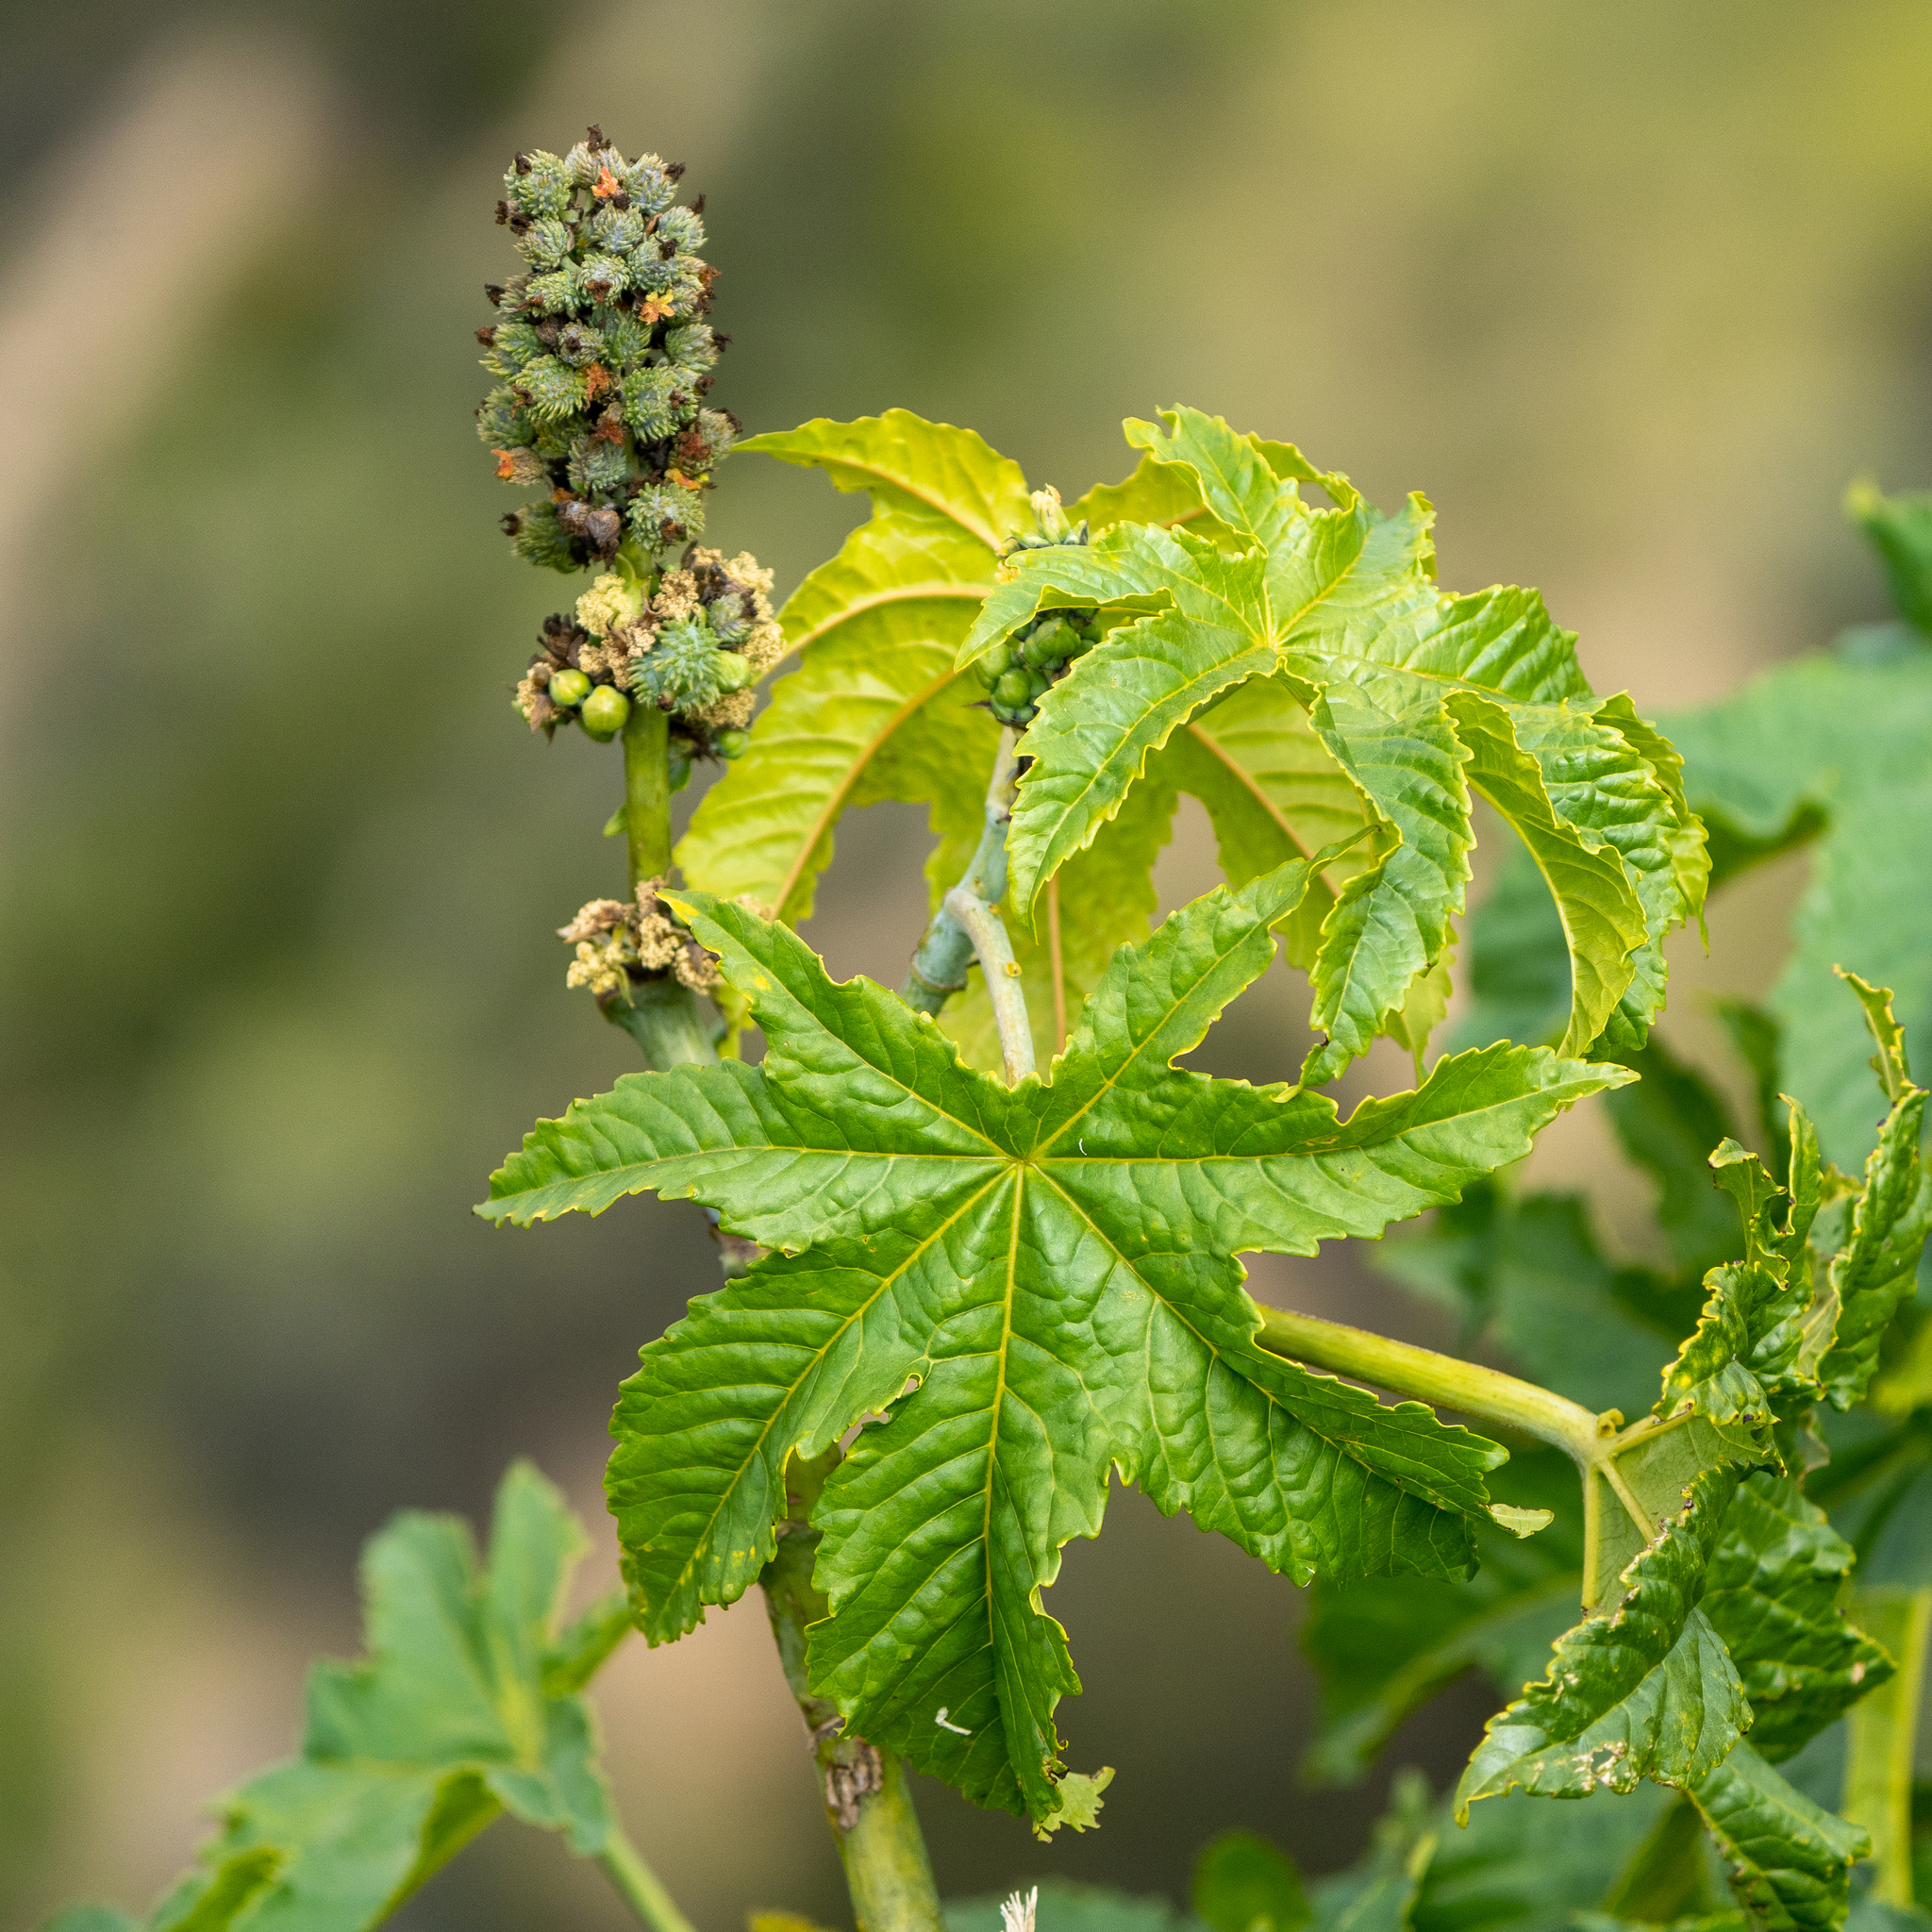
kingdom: Plantae
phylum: Tracheophyta
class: Magnoliopsida
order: Malpighiales
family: Euphorbiaceae
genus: Ricinus
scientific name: Ricinus communis
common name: Castor-oil-plant
